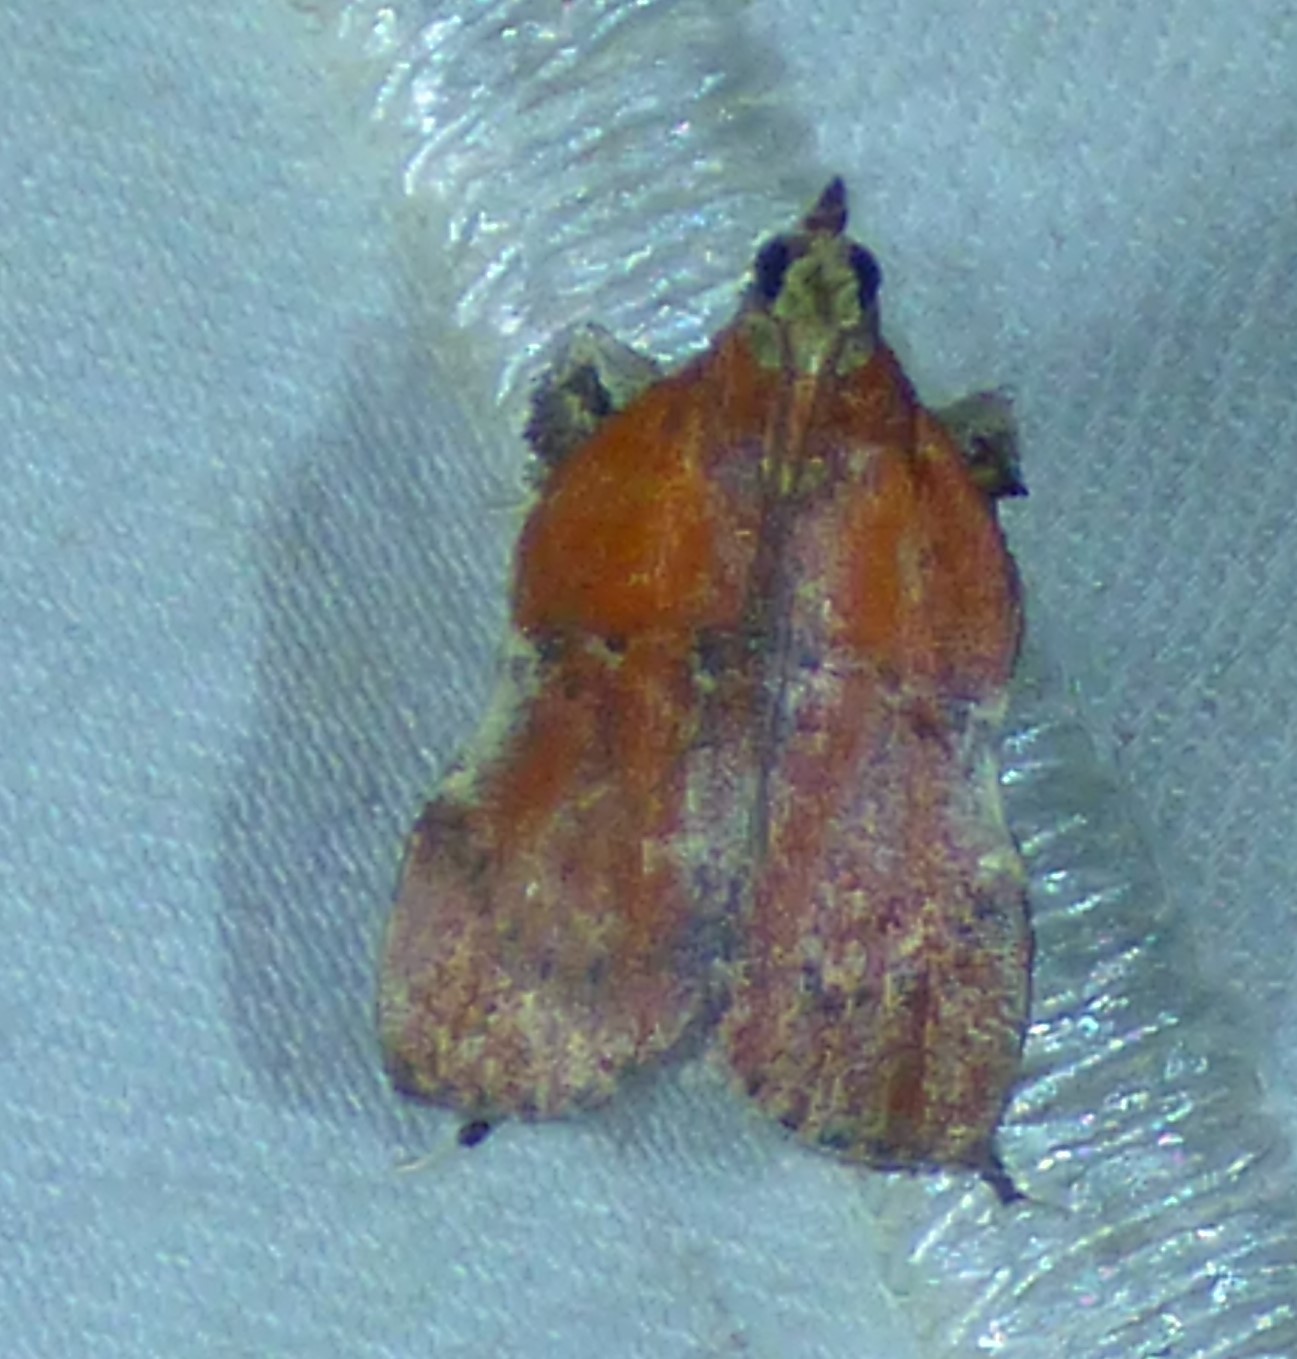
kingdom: Animalia
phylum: Arthropoda
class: Insecta
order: Lepidoptera
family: Pyralidae
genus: Galasa
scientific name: Galasa nigrinodis
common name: Boxwood leaftier moth
